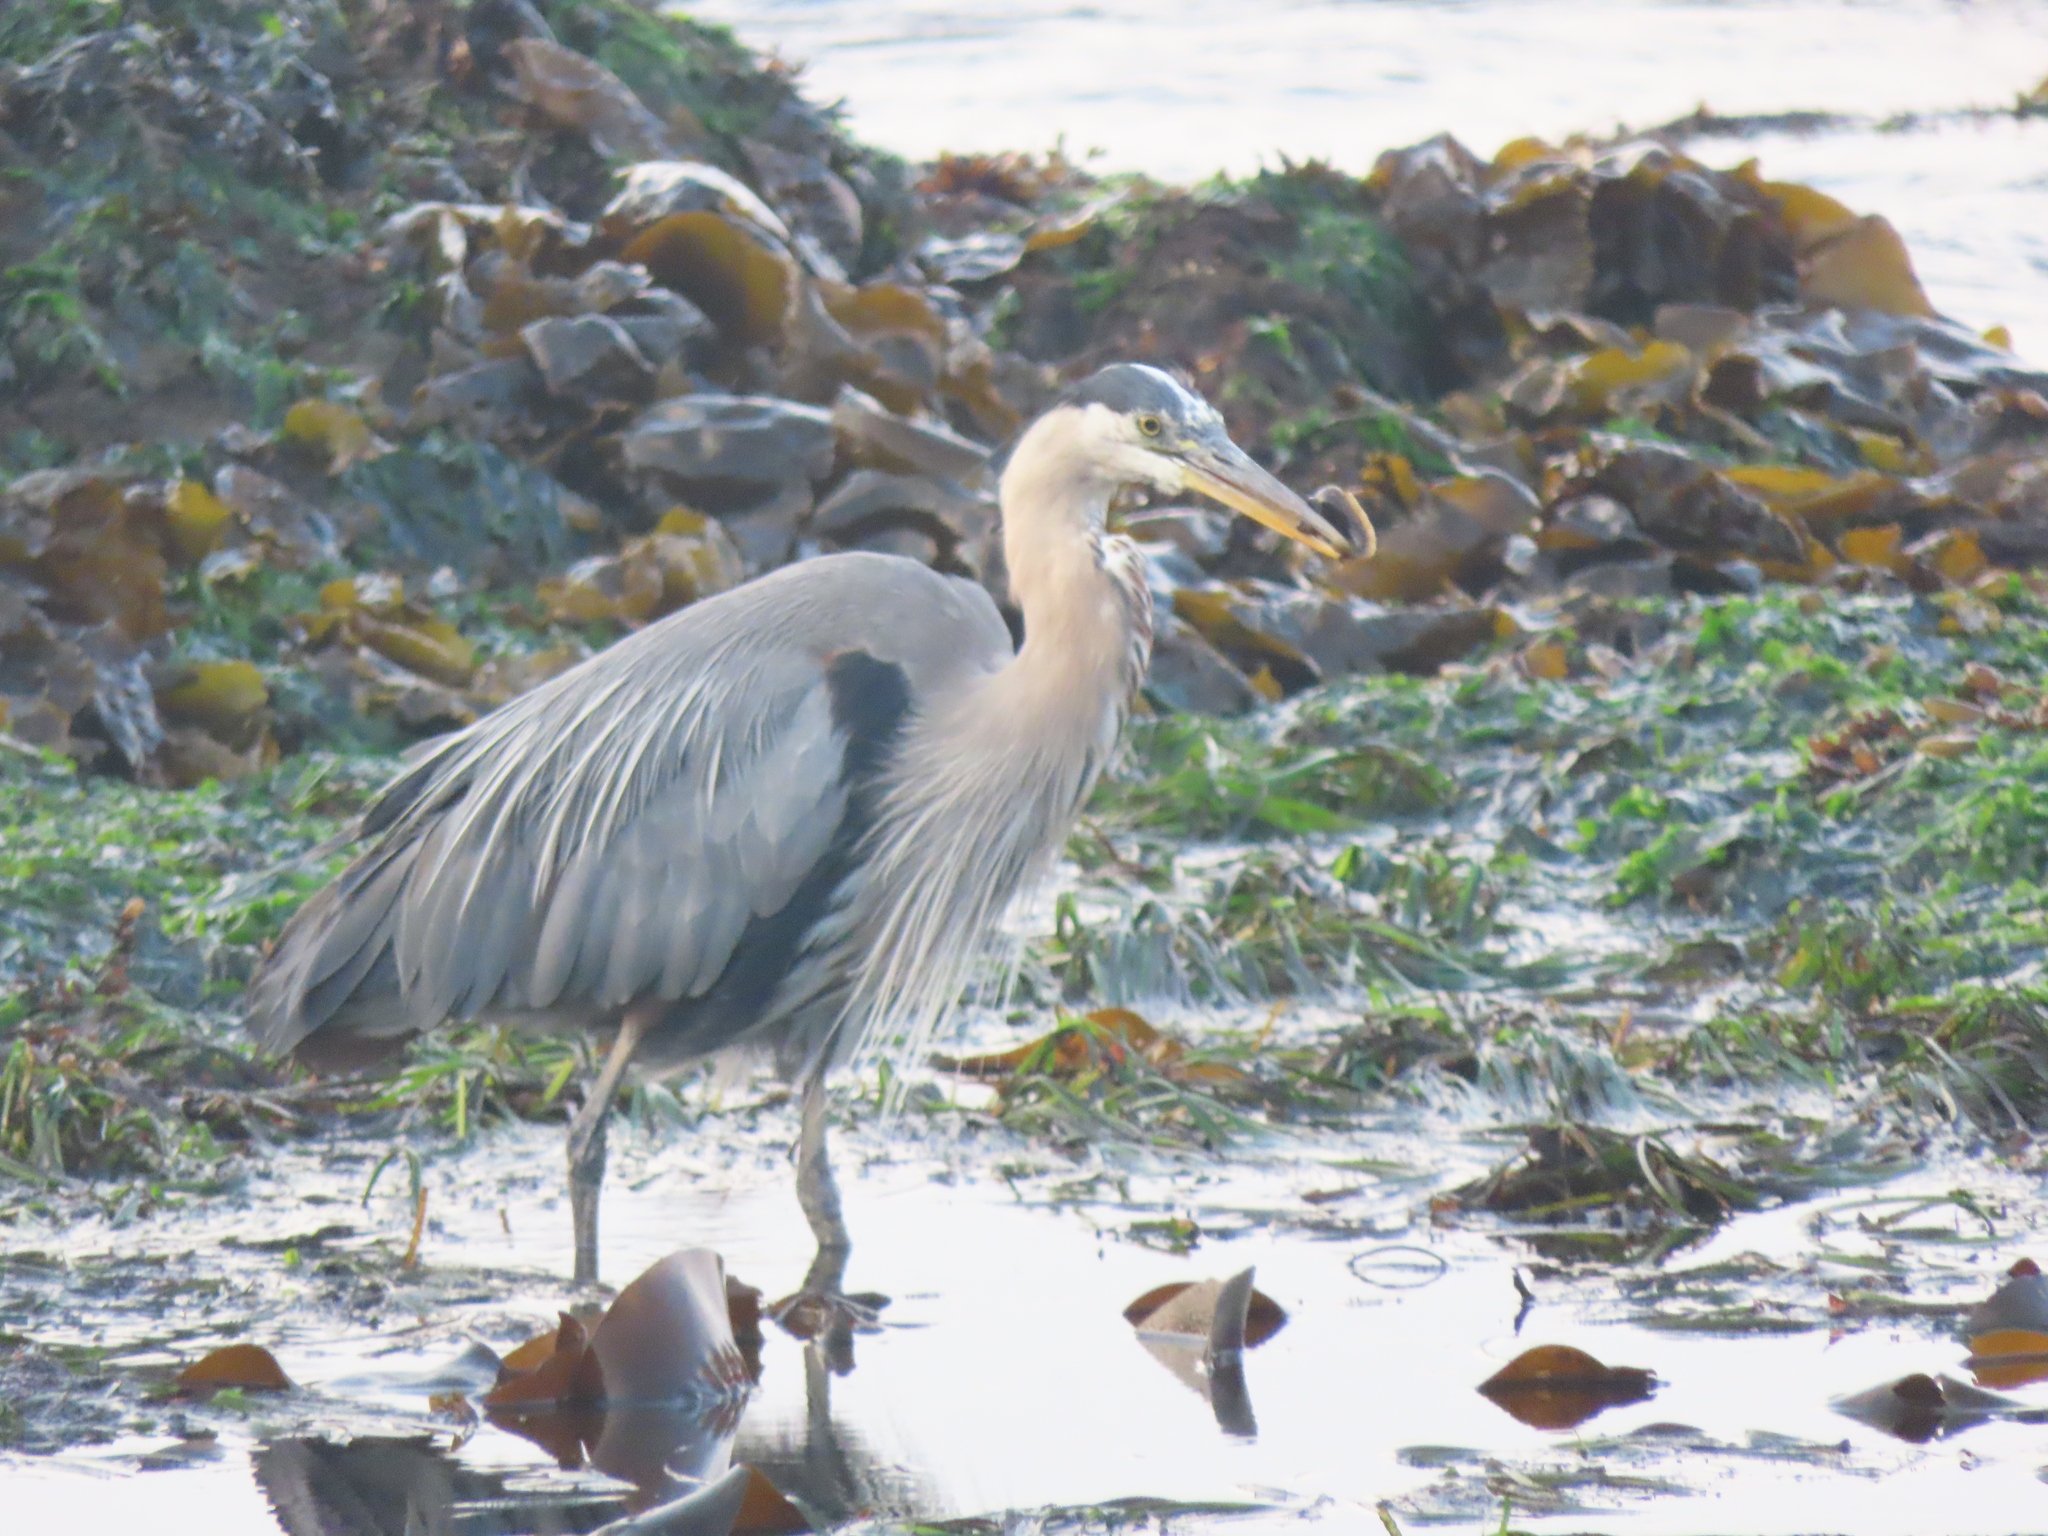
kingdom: Animalia
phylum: Chordata
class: Aves
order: Pelecaniformes
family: Ardeidae
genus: Ardea
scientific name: Ardea herodias
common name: Great blue heron
